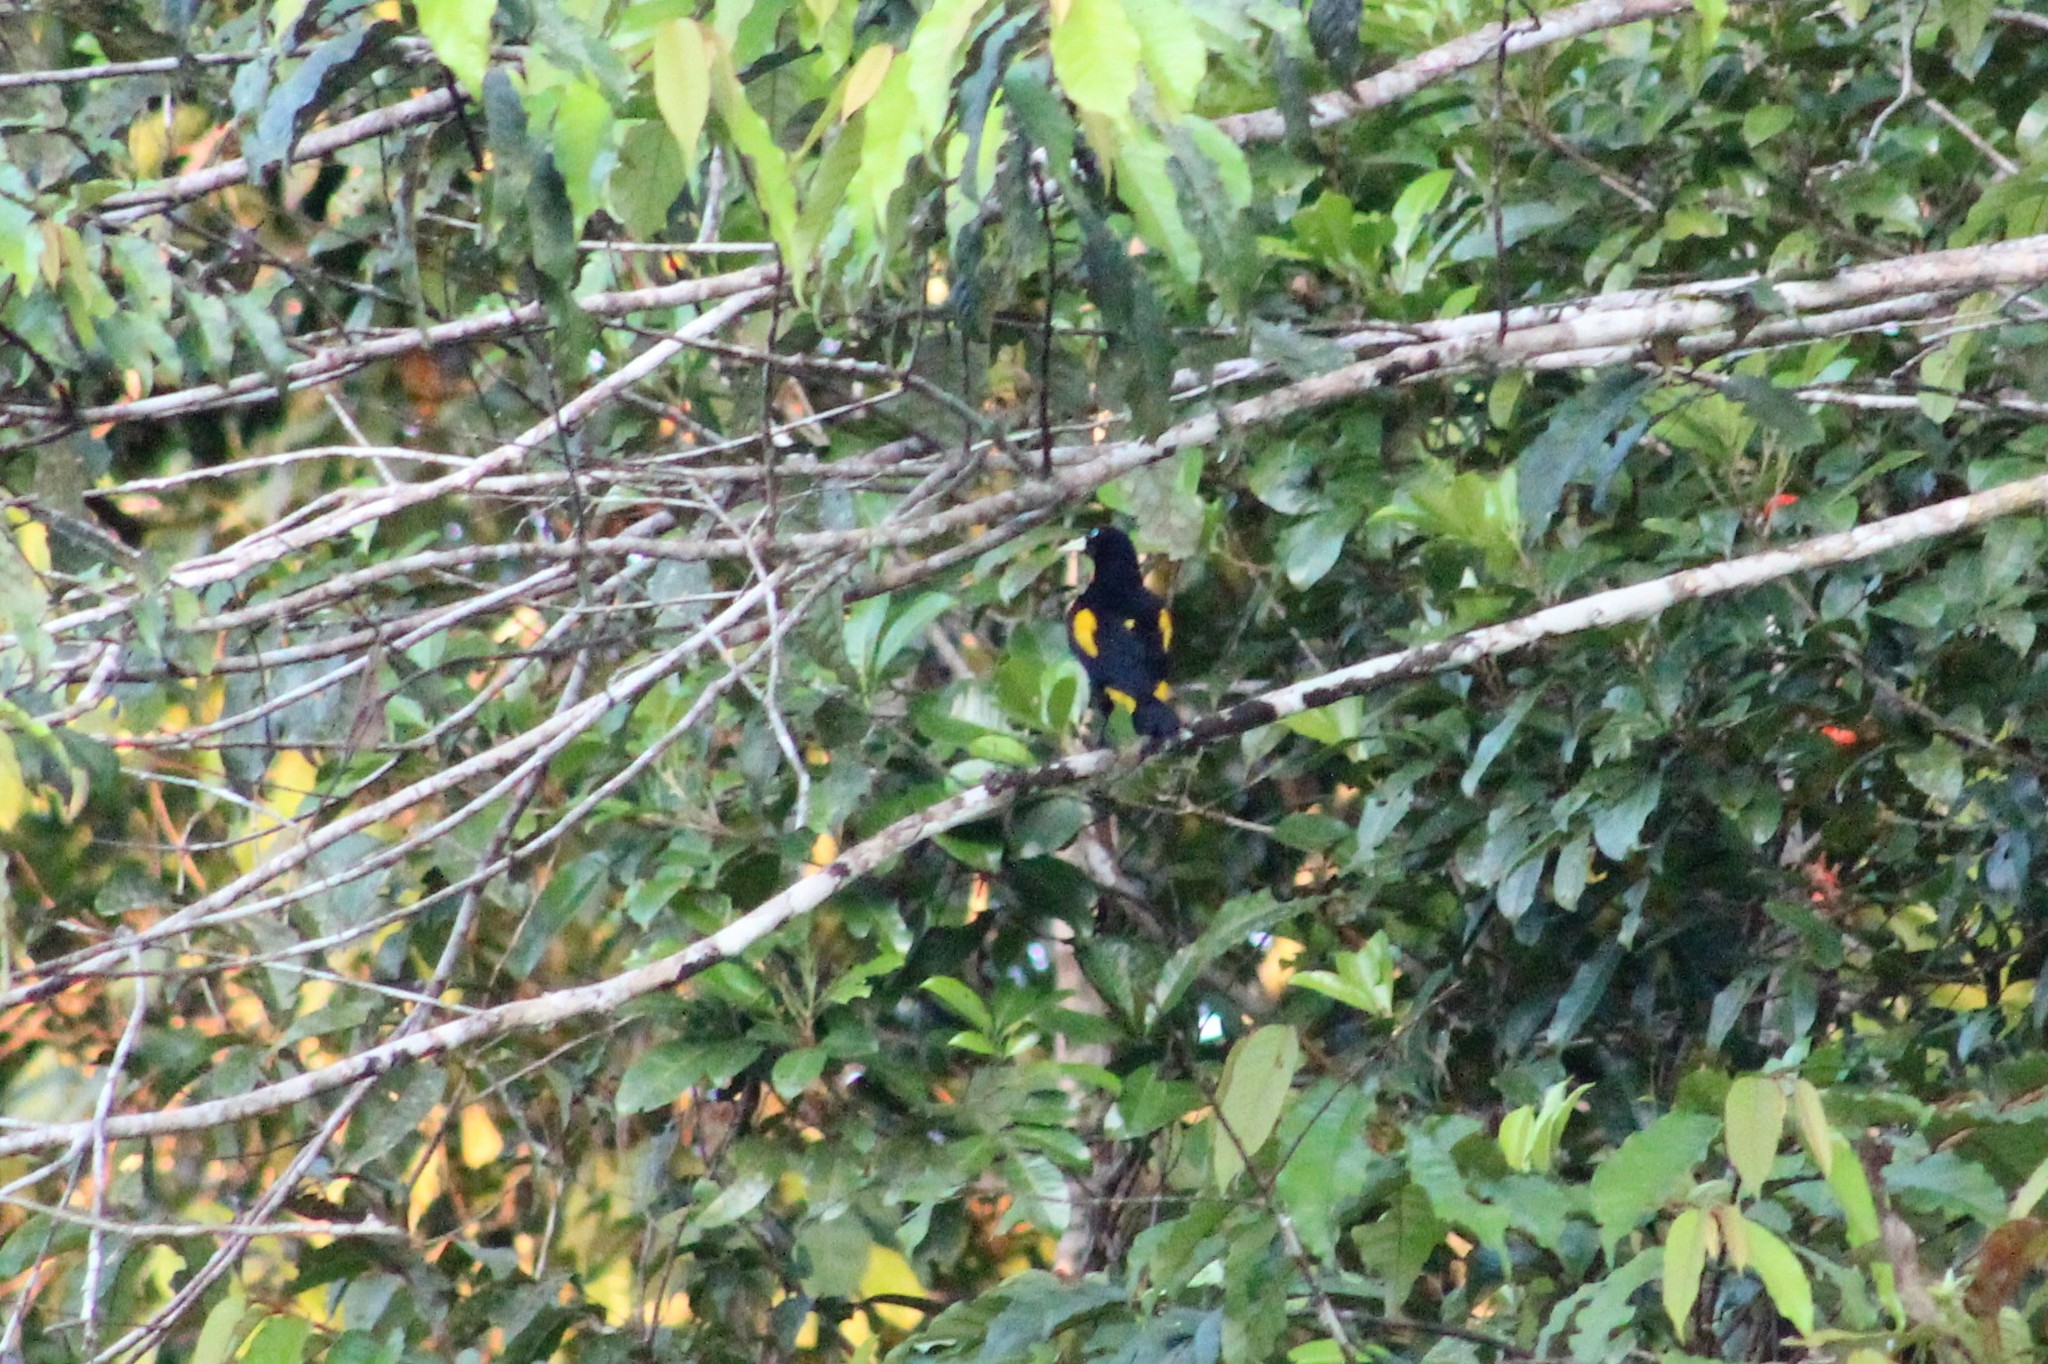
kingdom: Animalia
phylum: Chordata
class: Aves
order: Passeriformes
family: Icteridae
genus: Cacicus
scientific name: Cacicus cela
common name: Yellow-rumped cacique
